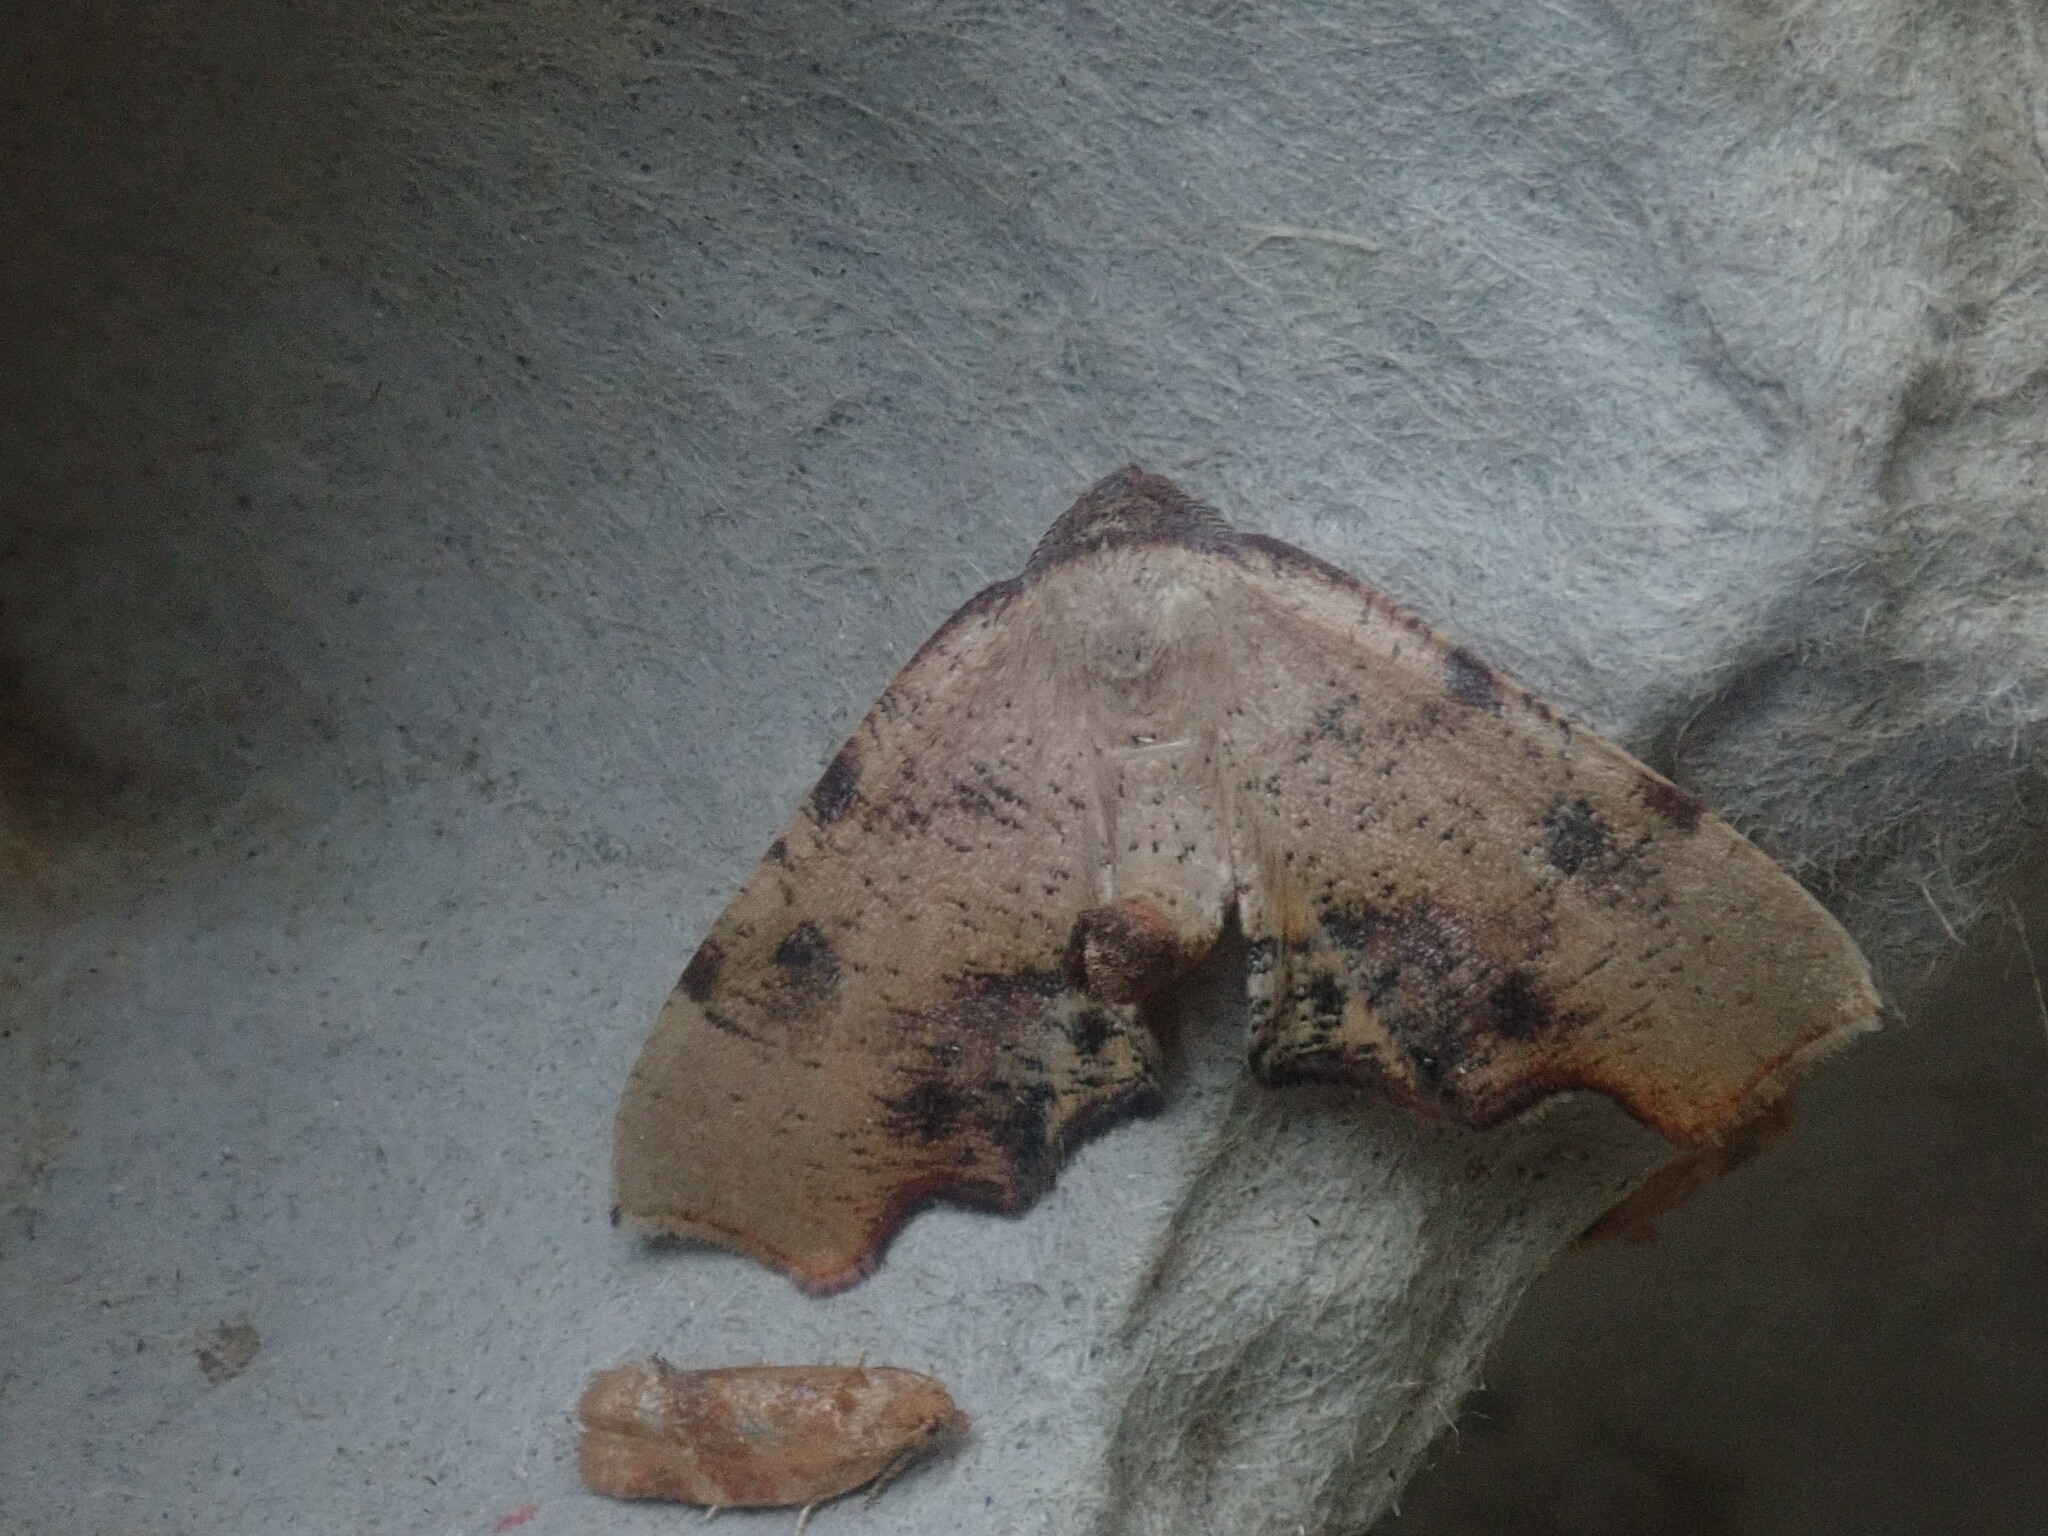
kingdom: Animalia
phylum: Arthropoda
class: Insecta
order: Lepidoptera
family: Geometridae
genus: Plagodis
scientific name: Plagodis fervidaria
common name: Fervid plagodis
